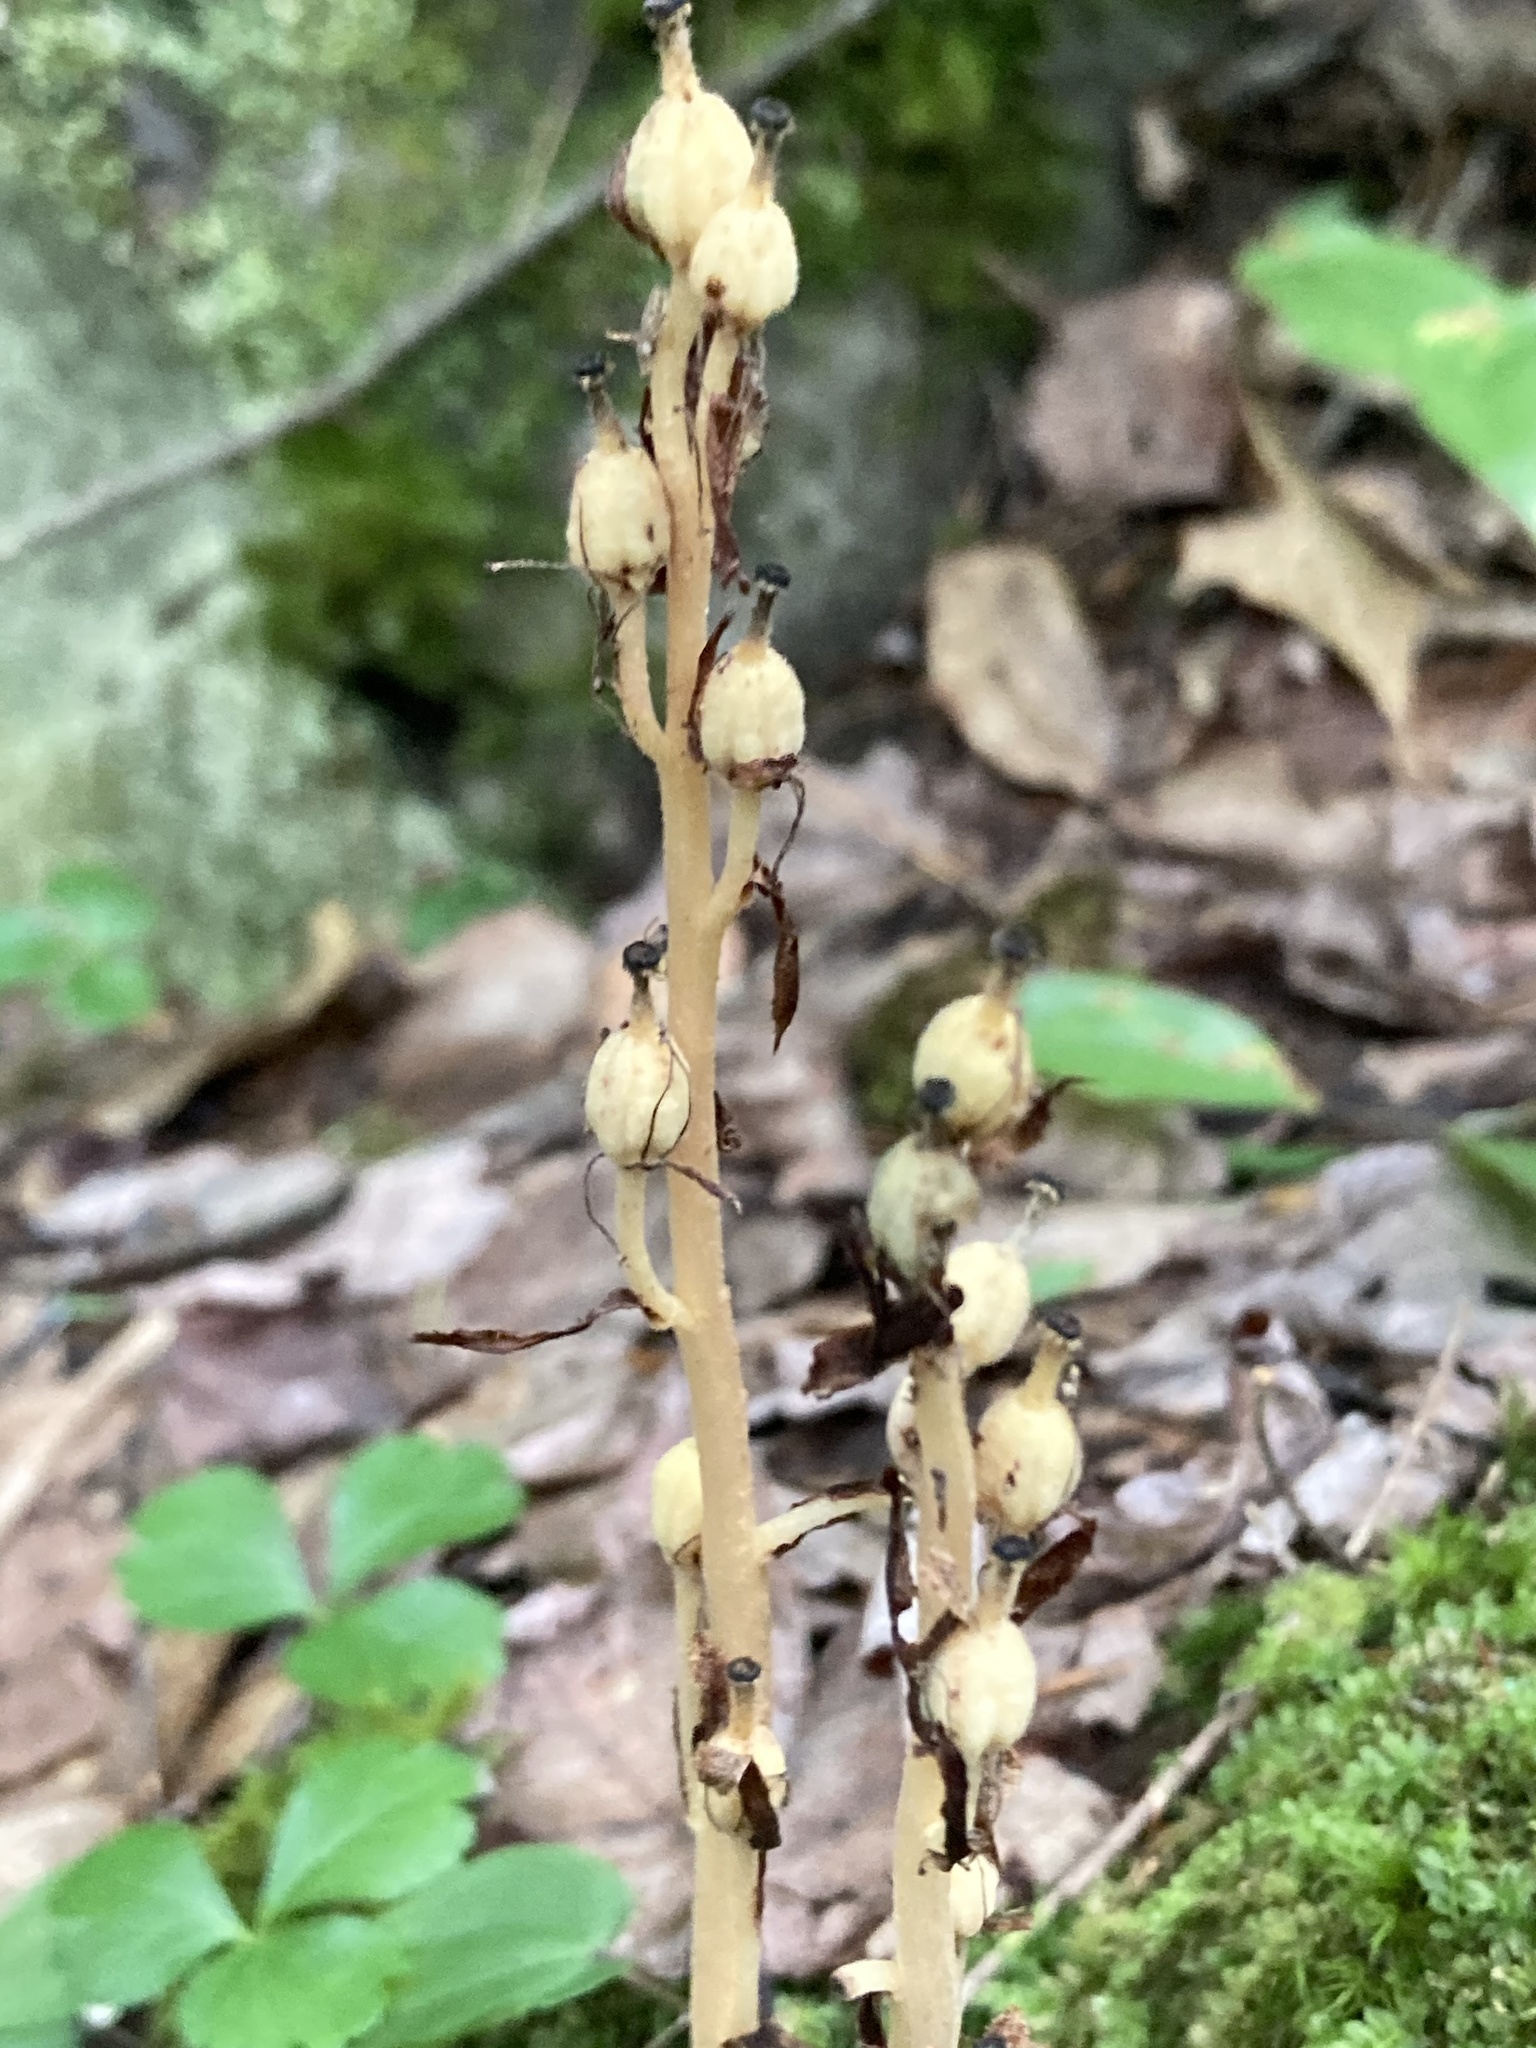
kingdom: Plantae
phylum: Tracheophyta
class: Magnoliopsida
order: Ericales
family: Ericaceae
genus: Hypopitys
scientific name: Hypopitys monotropa
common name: Yellow bird's-nest
